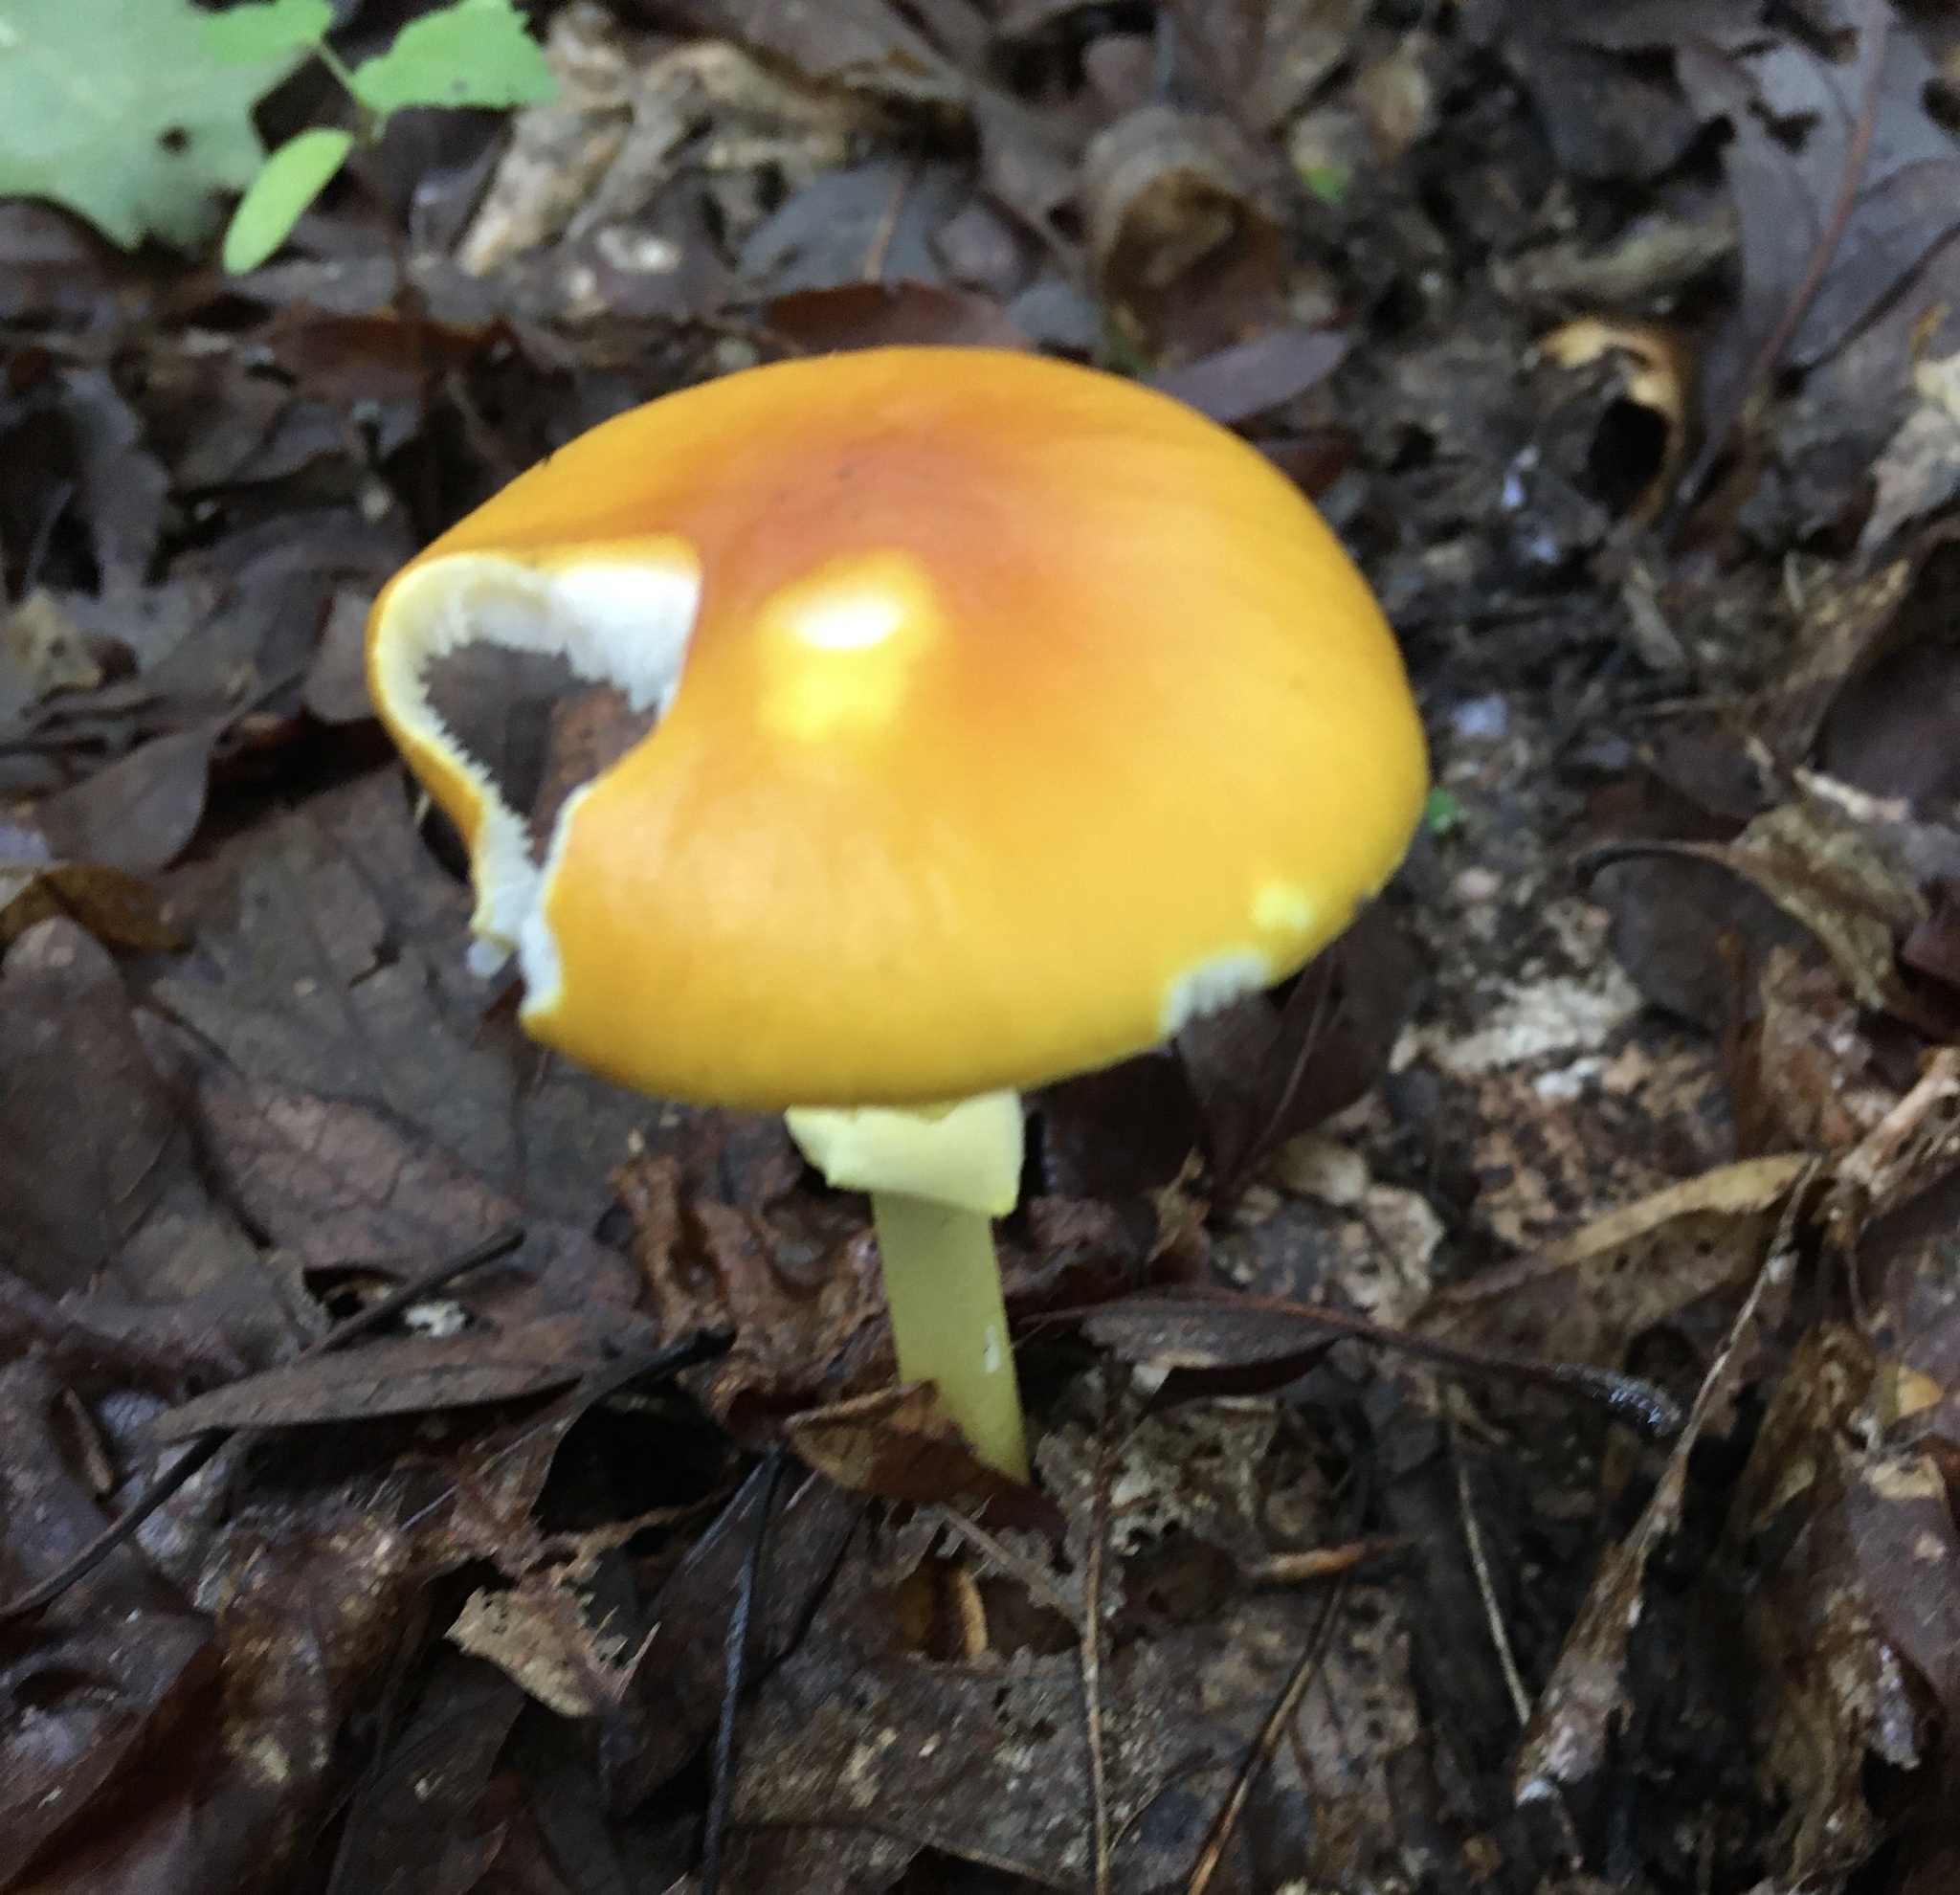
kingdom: Fungi
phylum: Basidiomycota
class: Agaricomycetes
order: Agaricales
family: Amanitaceae
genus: Amanita
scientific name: Amanita flavoconia
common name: Yellow patches
